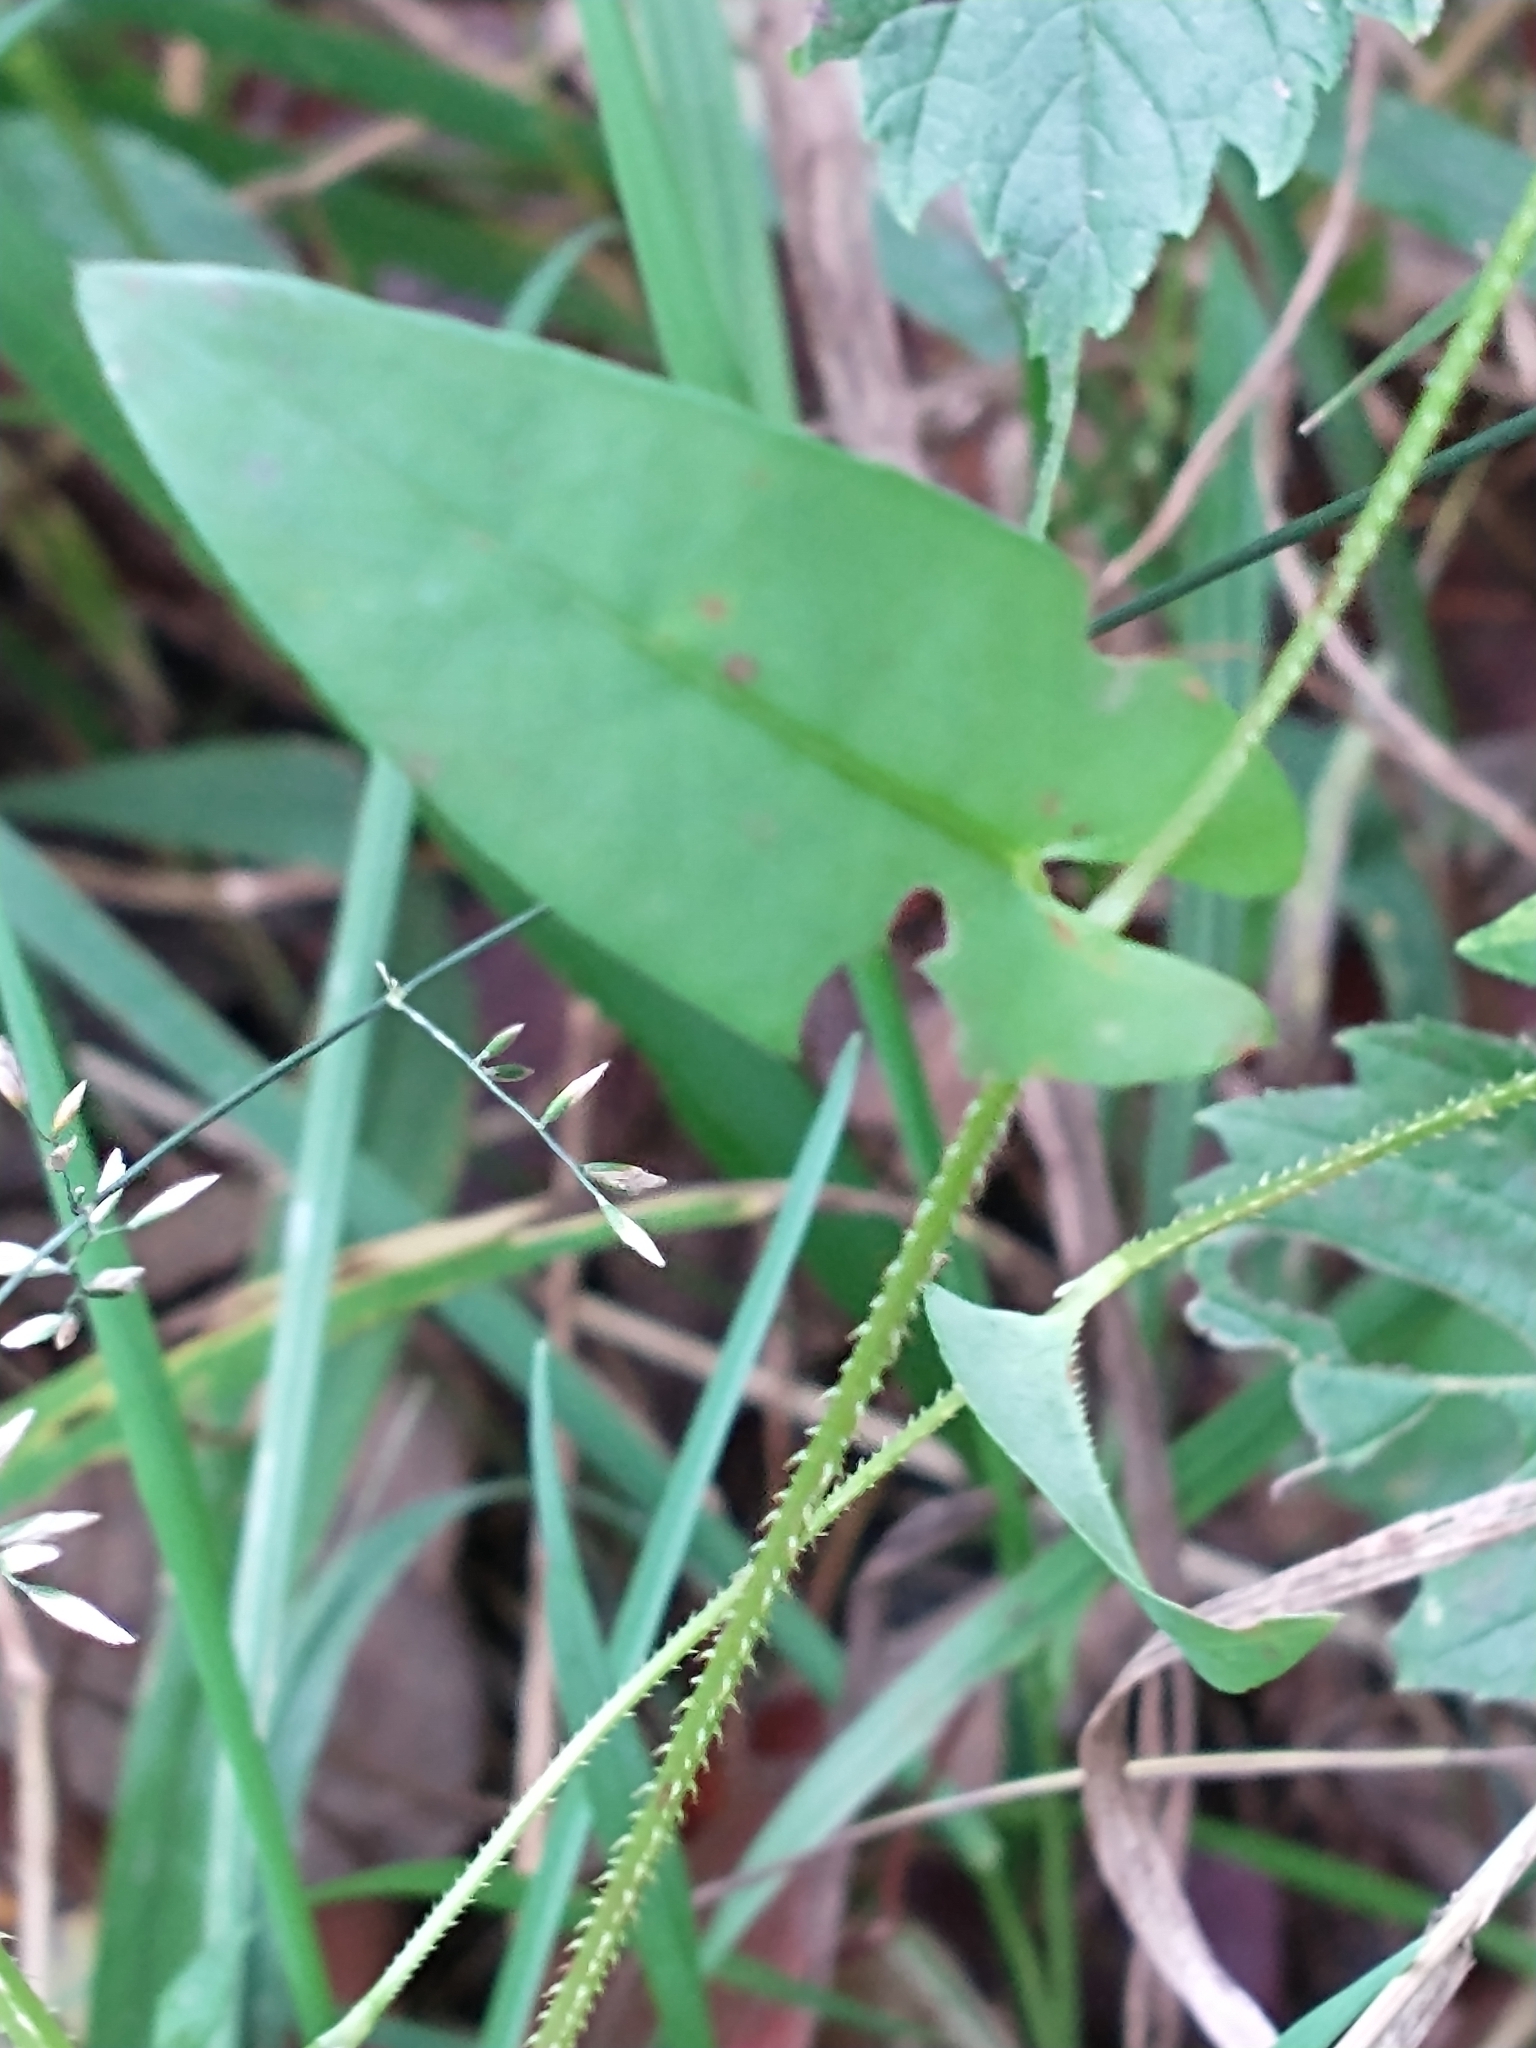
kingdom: Plantae
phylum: Tracheophyta
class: Magnoliopsida
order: Caryophyllales
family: Polygonaceae
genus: Persicaria
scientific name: Persicaria sagittata
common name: American tearthumb
